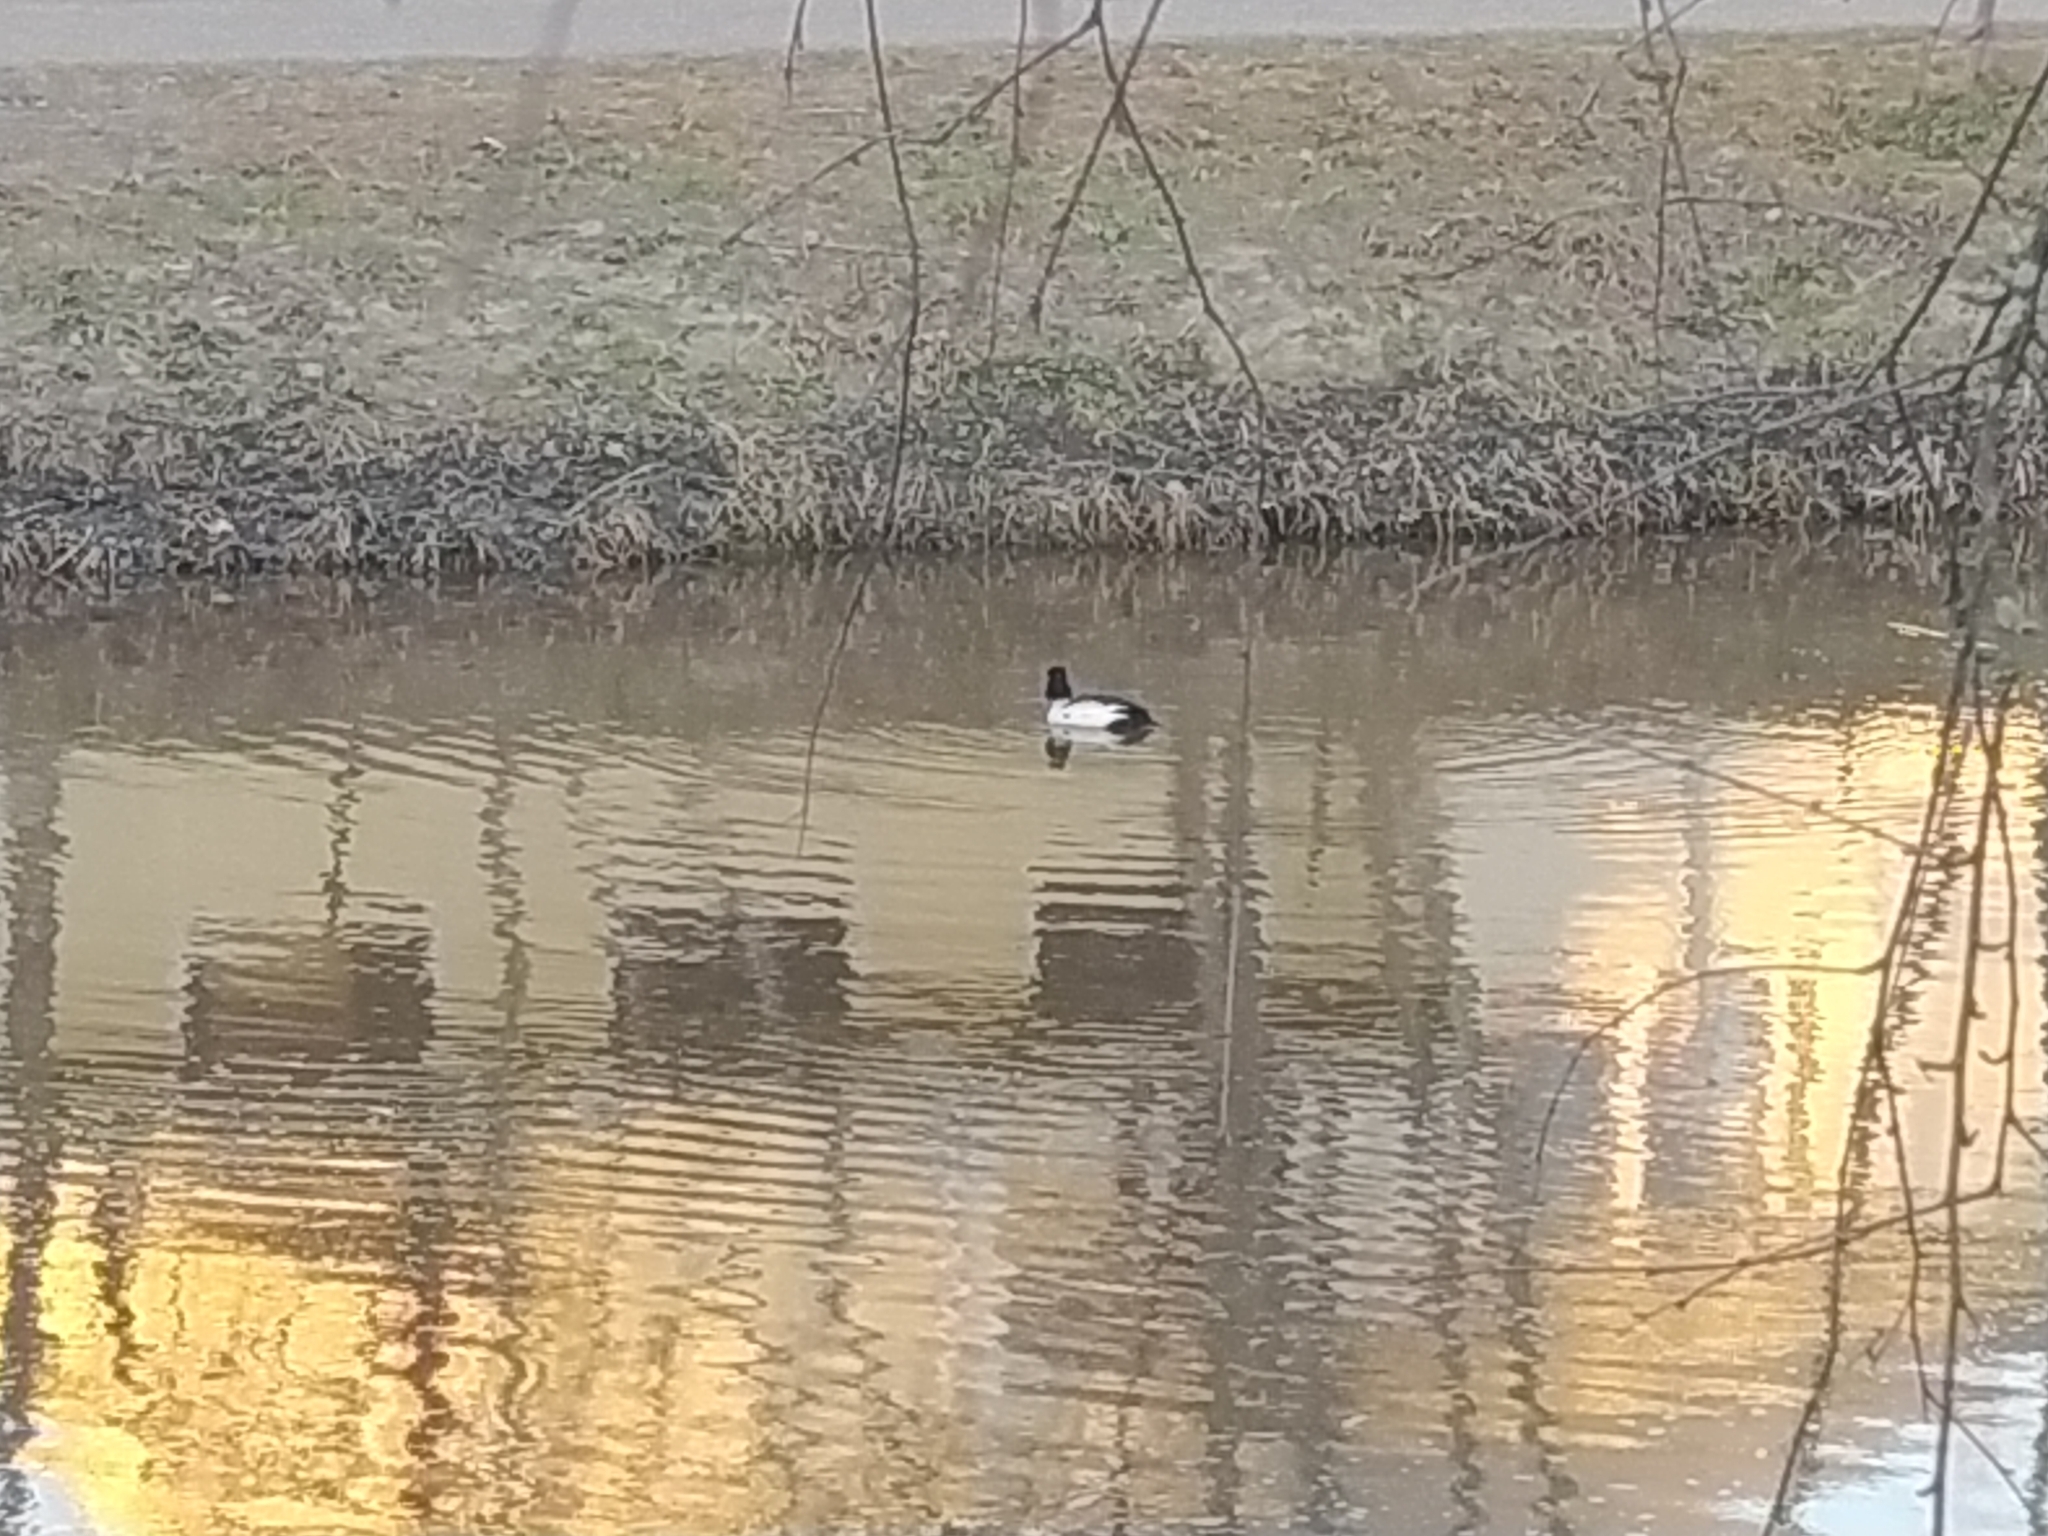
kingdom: Animalia
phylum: Chordata
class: Aves
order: Anseriformes
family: Anatidae
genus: Bucephala
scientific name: Bucephala clangula
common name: Common goldeneye
